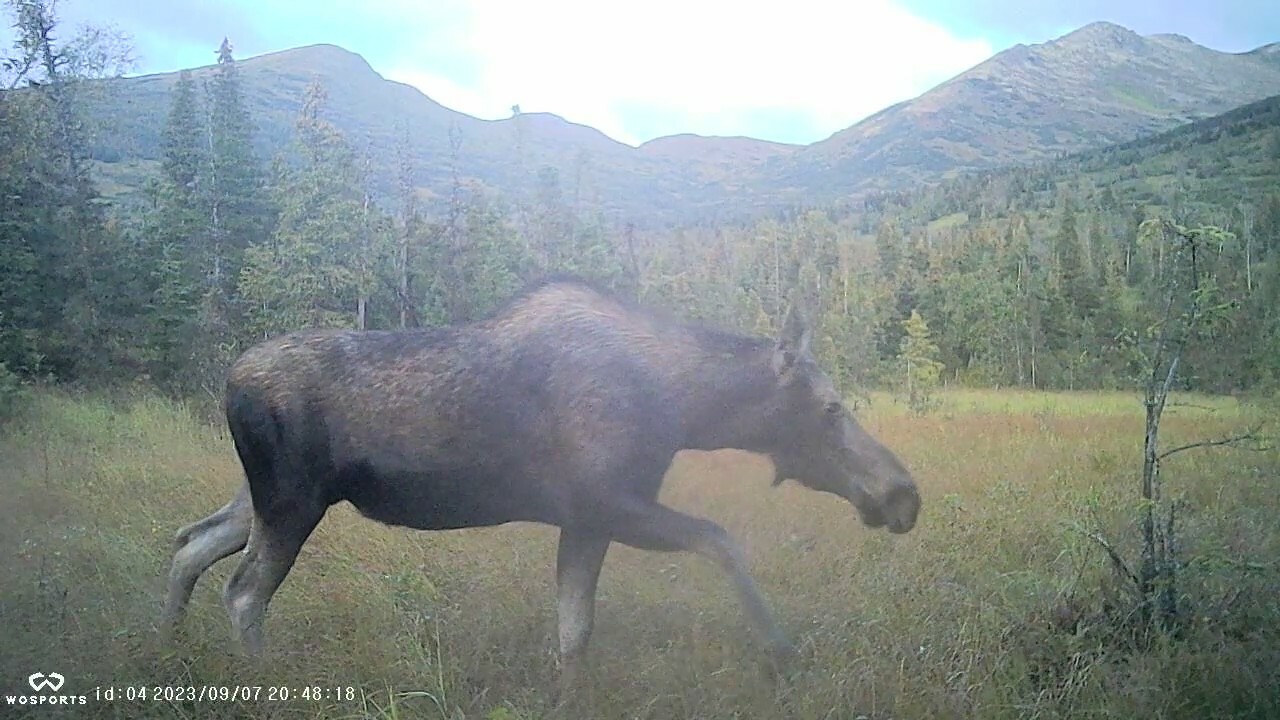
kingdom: Animalia
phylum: Chordata
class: Mammalia
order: Artiodactyla
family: Cervidae
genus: Alces
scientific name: Alces alces
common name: Moose
